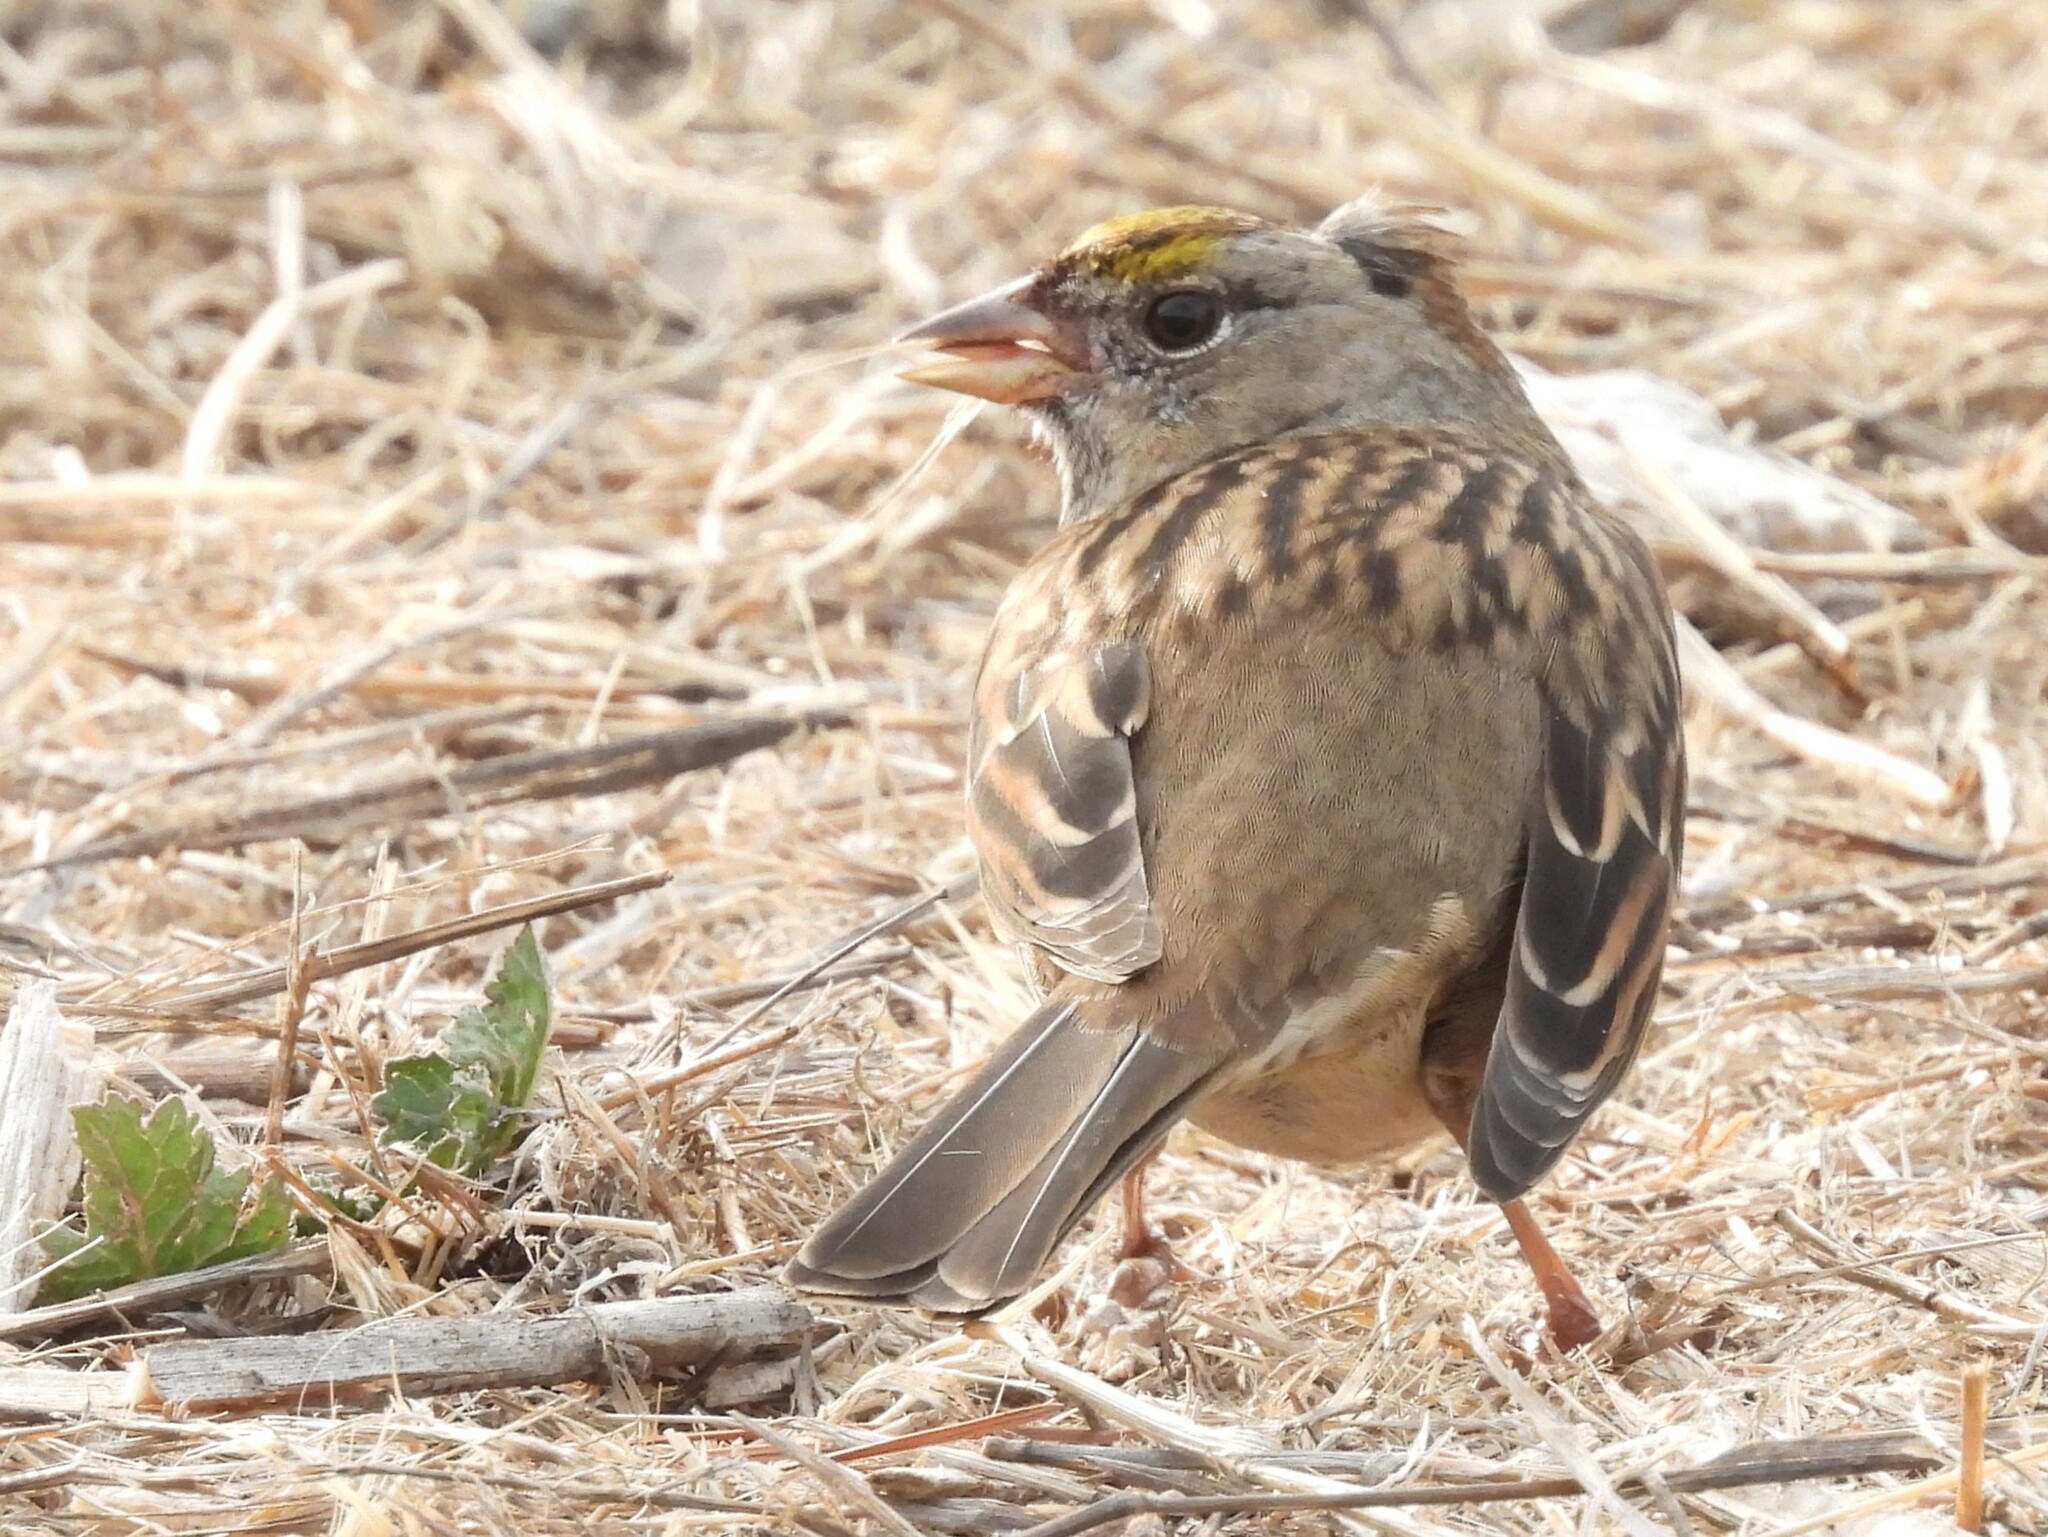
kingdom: Animalia
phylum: Chordata
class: Aves
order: Passeriformes
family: Passerellidae
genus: Zonotrichia
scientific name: Zonotrichia atricapilla
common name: Golden-crowned sparrow
